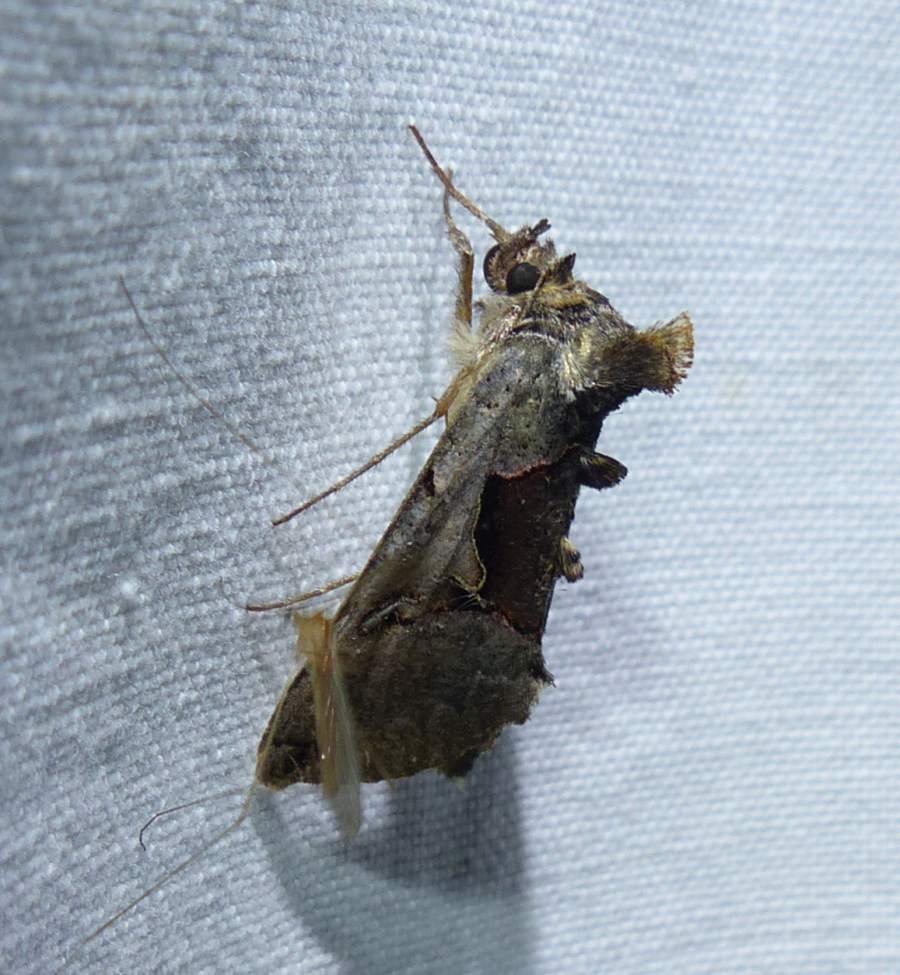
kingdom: Animalia
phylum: Arthropoda
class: Insecta
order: Lepidoptera
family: Noctuidae
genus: Autographa
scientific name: Autographa ampla
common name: Large looper moth
